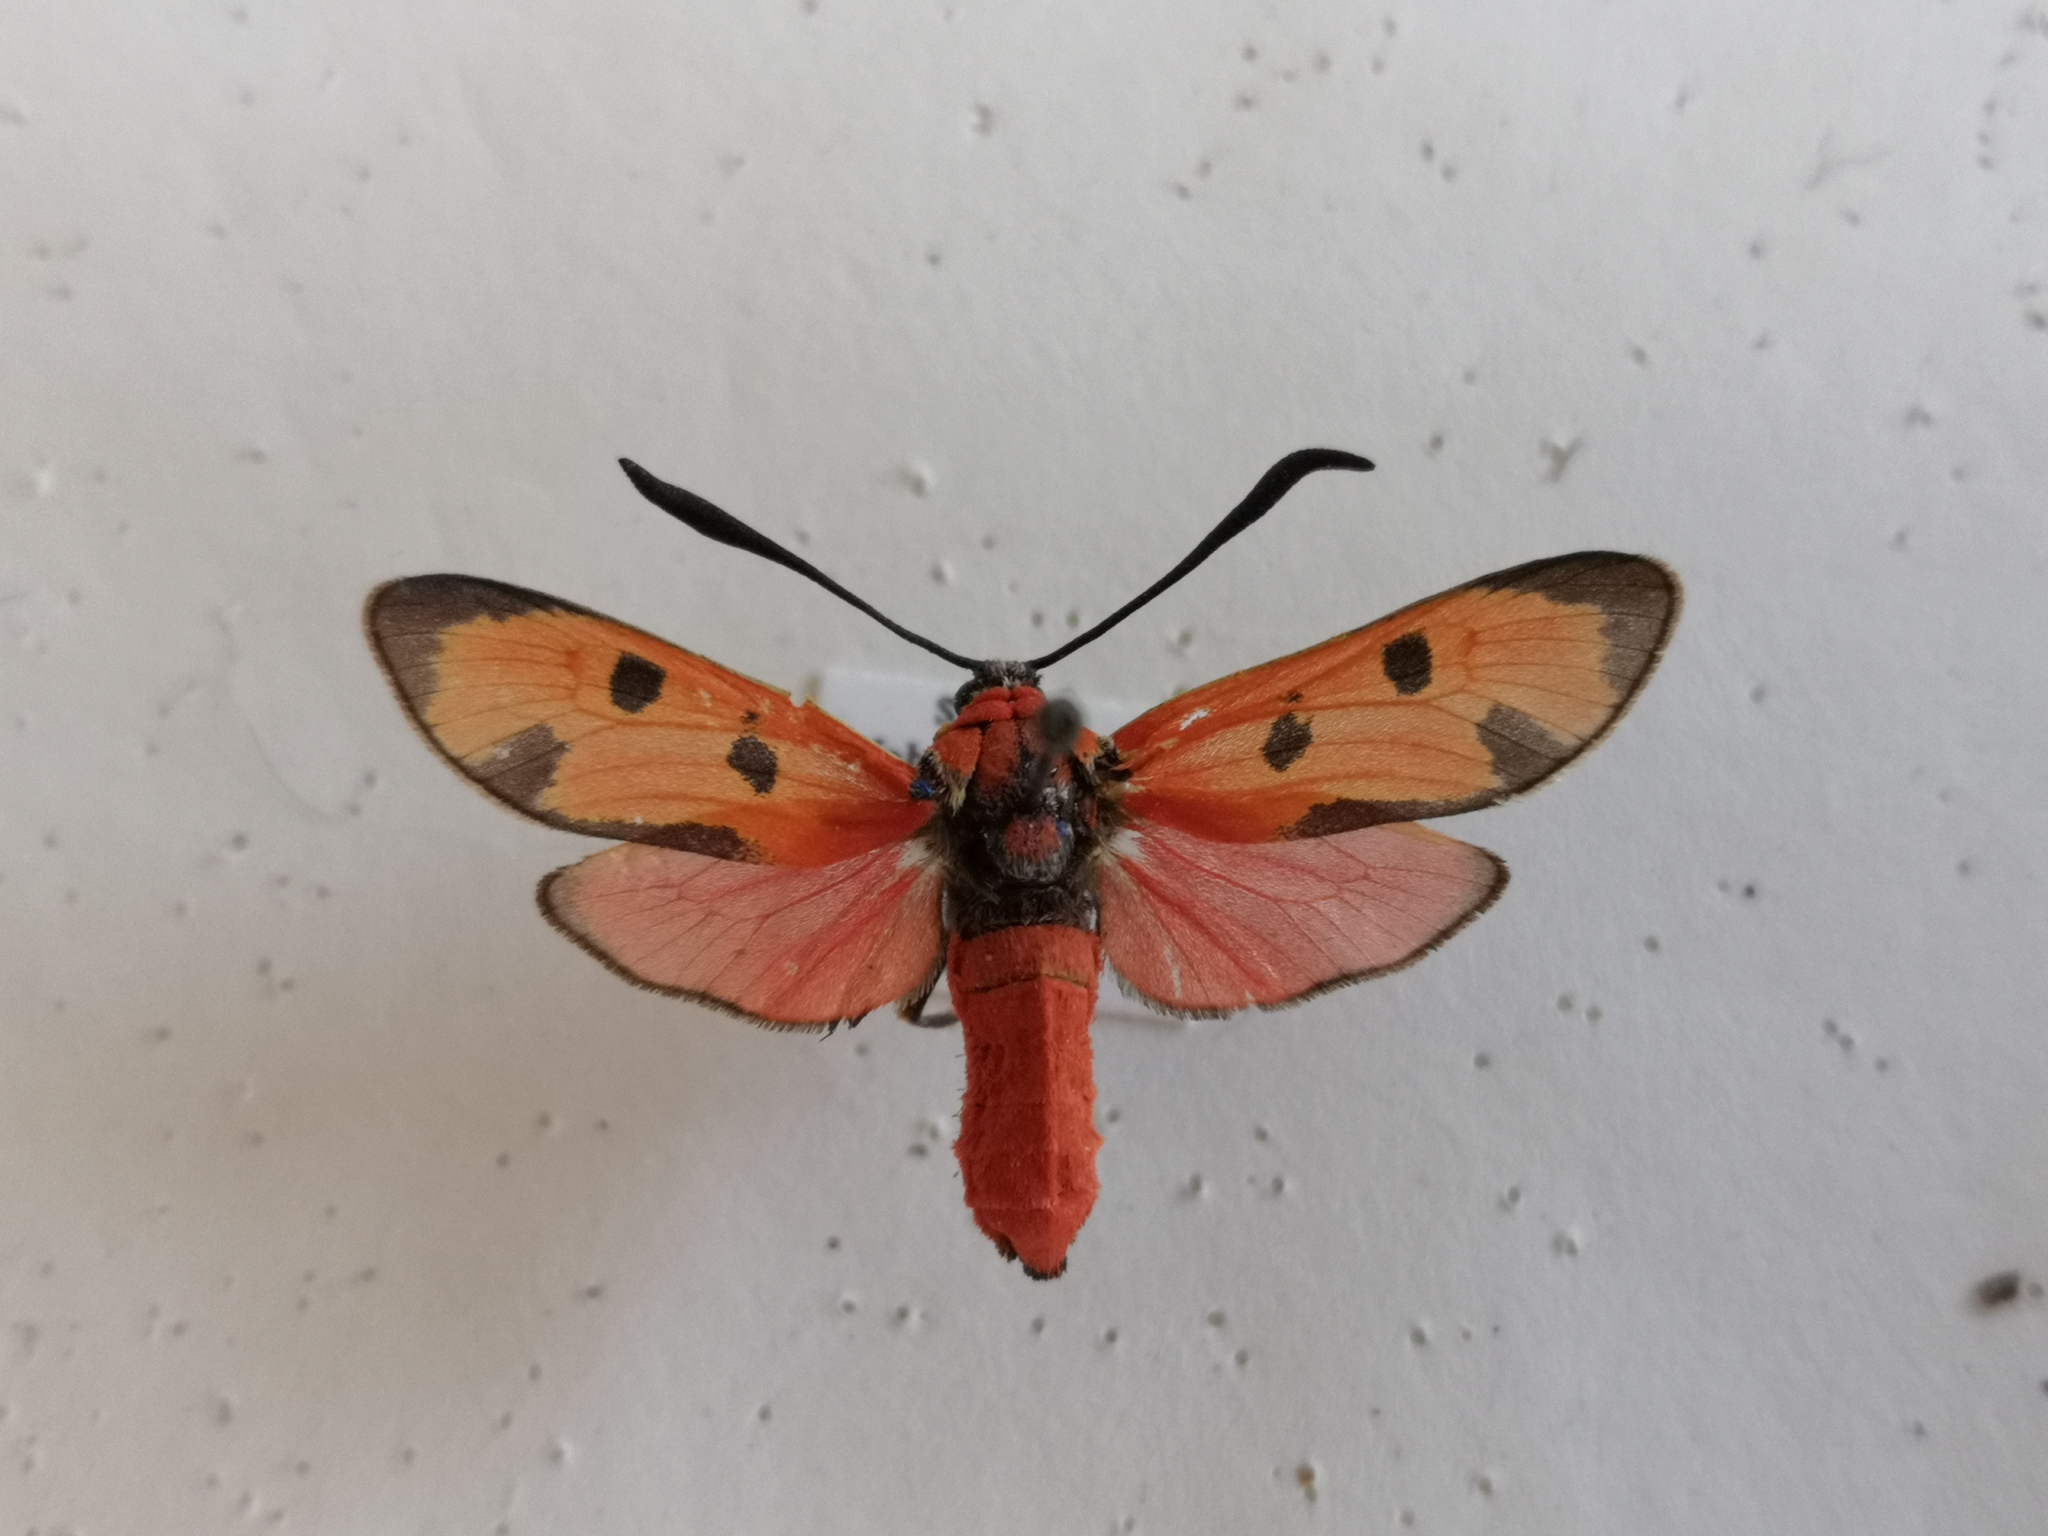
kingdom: Animalia
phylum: Arthropoda
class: Insecta
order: Lepidoptera
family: Zygaenidae
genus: Zygaena
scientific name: Zygaena laeta
